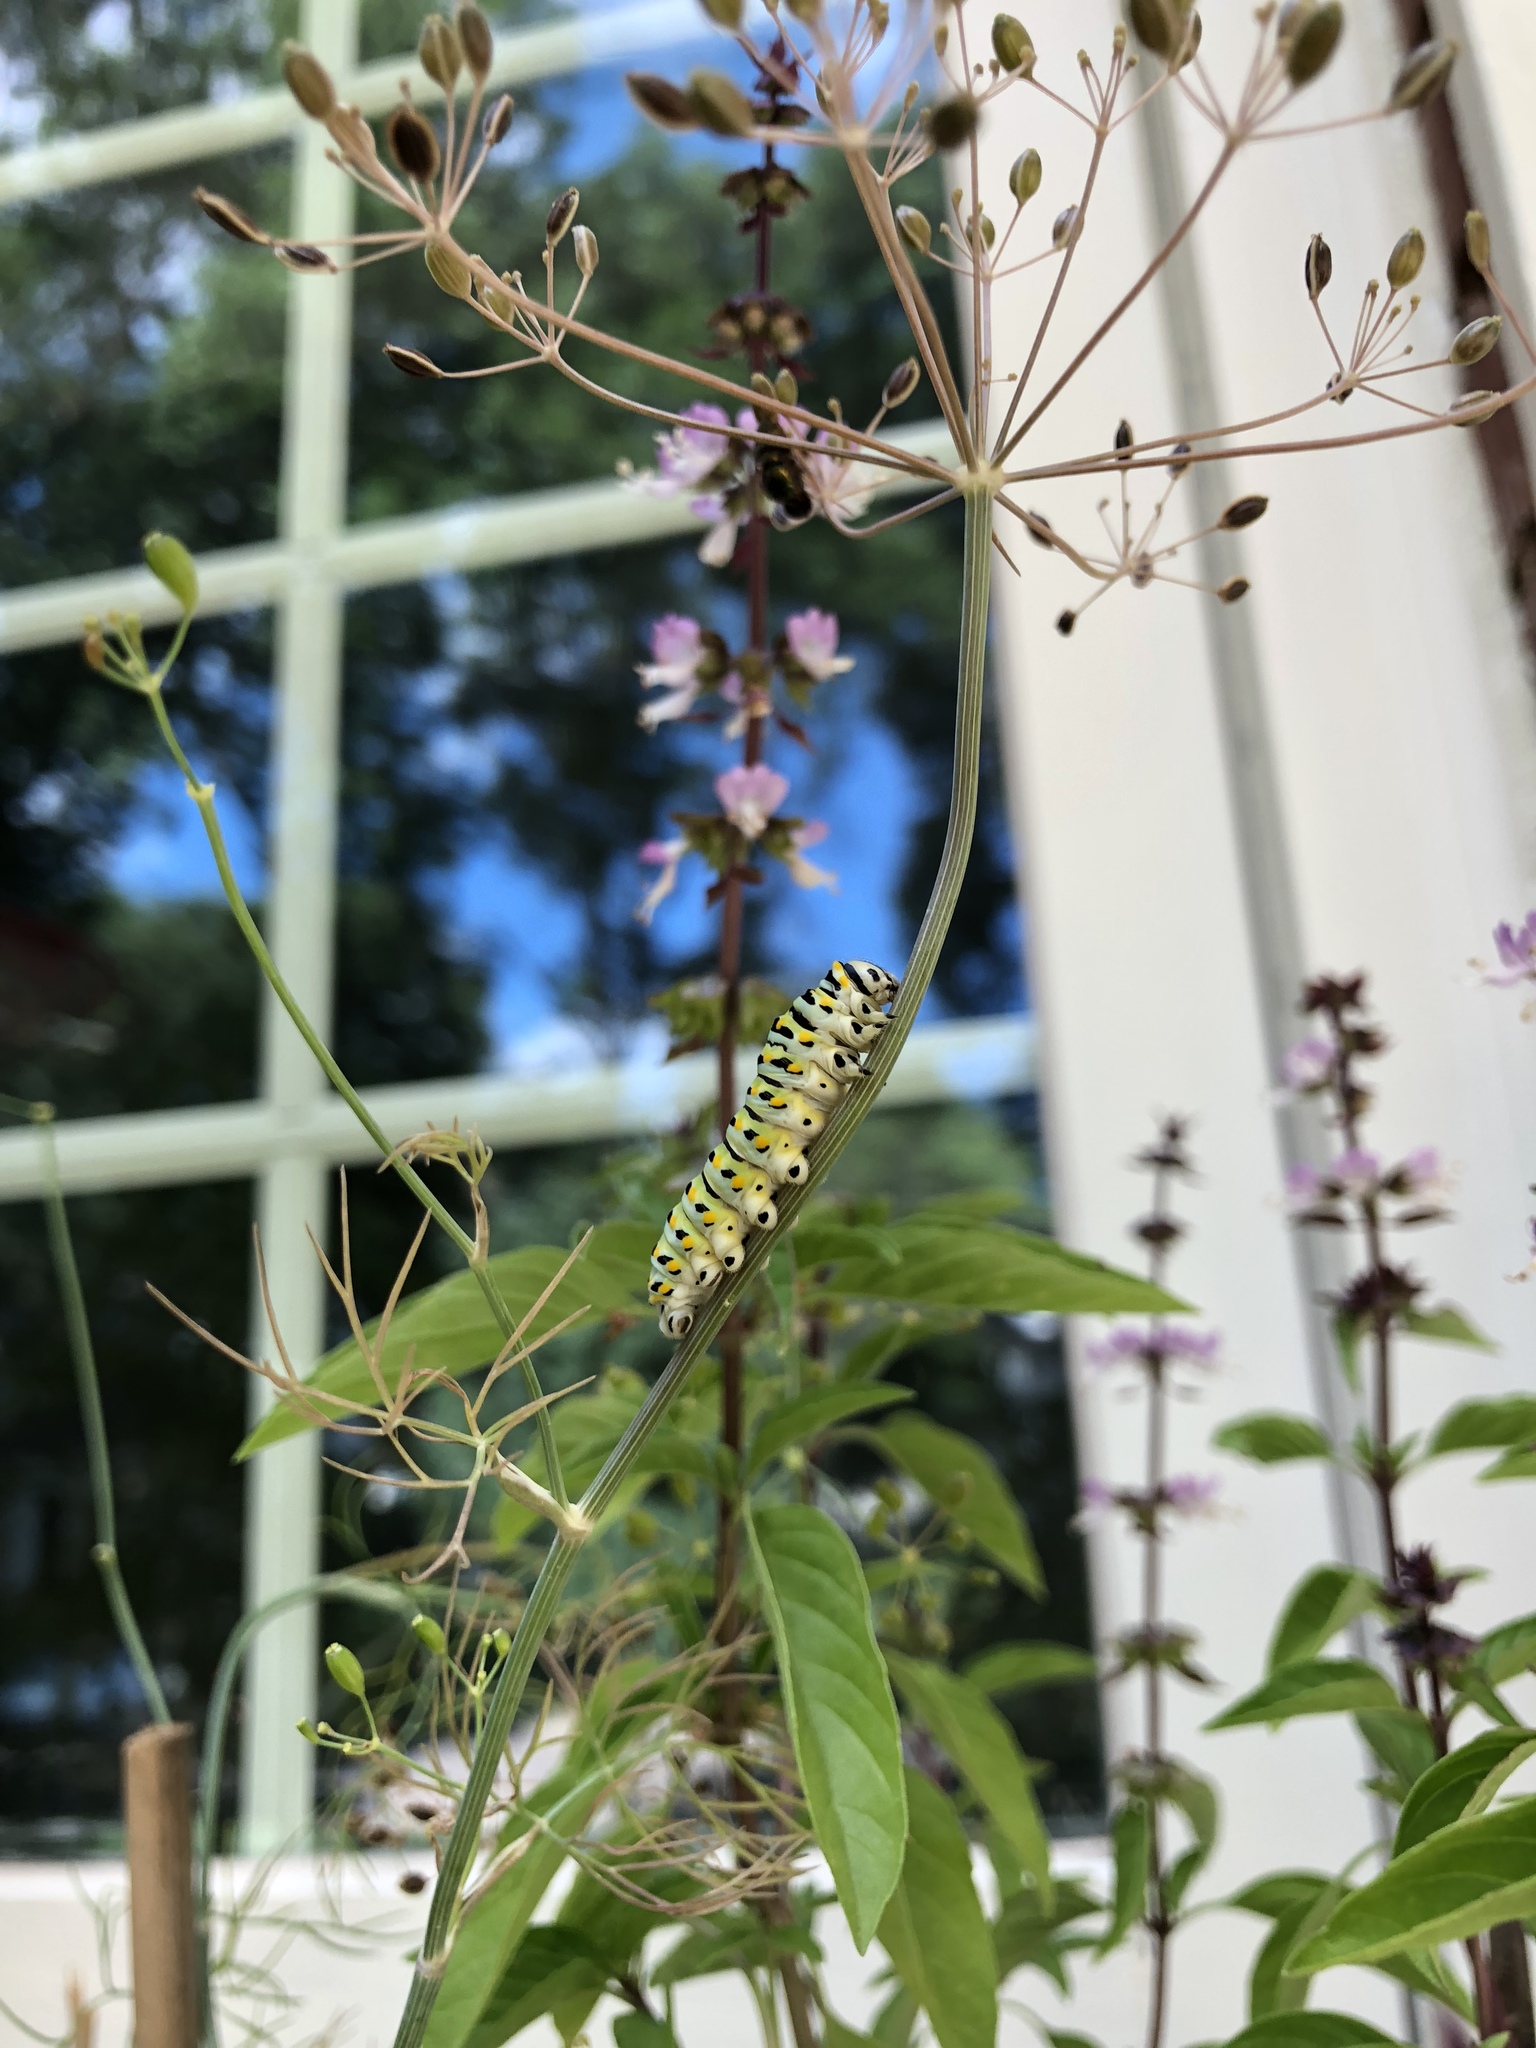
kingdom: Animalia
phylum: Arthropoda
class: Insecta
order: Lepidoptera
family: Papilionidae
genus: Papilio
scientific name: Papilio polyxenes
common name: Black swallowtail
